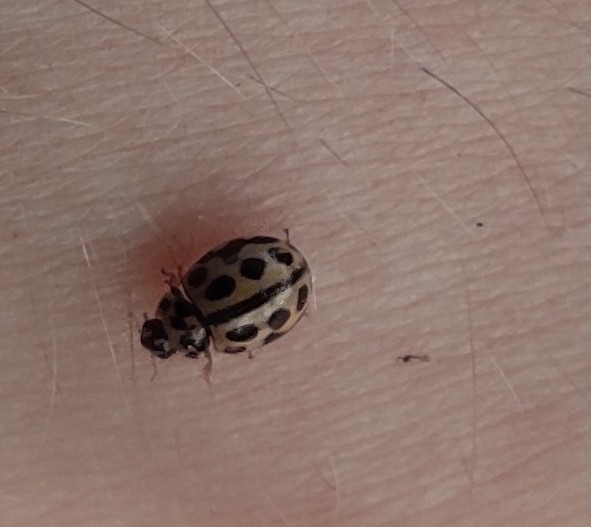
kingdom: Animalia
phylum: Arthropoda
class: Insecta
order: Coleoptera
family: Coccinellidae
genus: Tytthaspis
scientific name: Tytthaspis sedecimpunctata
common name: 16-spot ladybird
